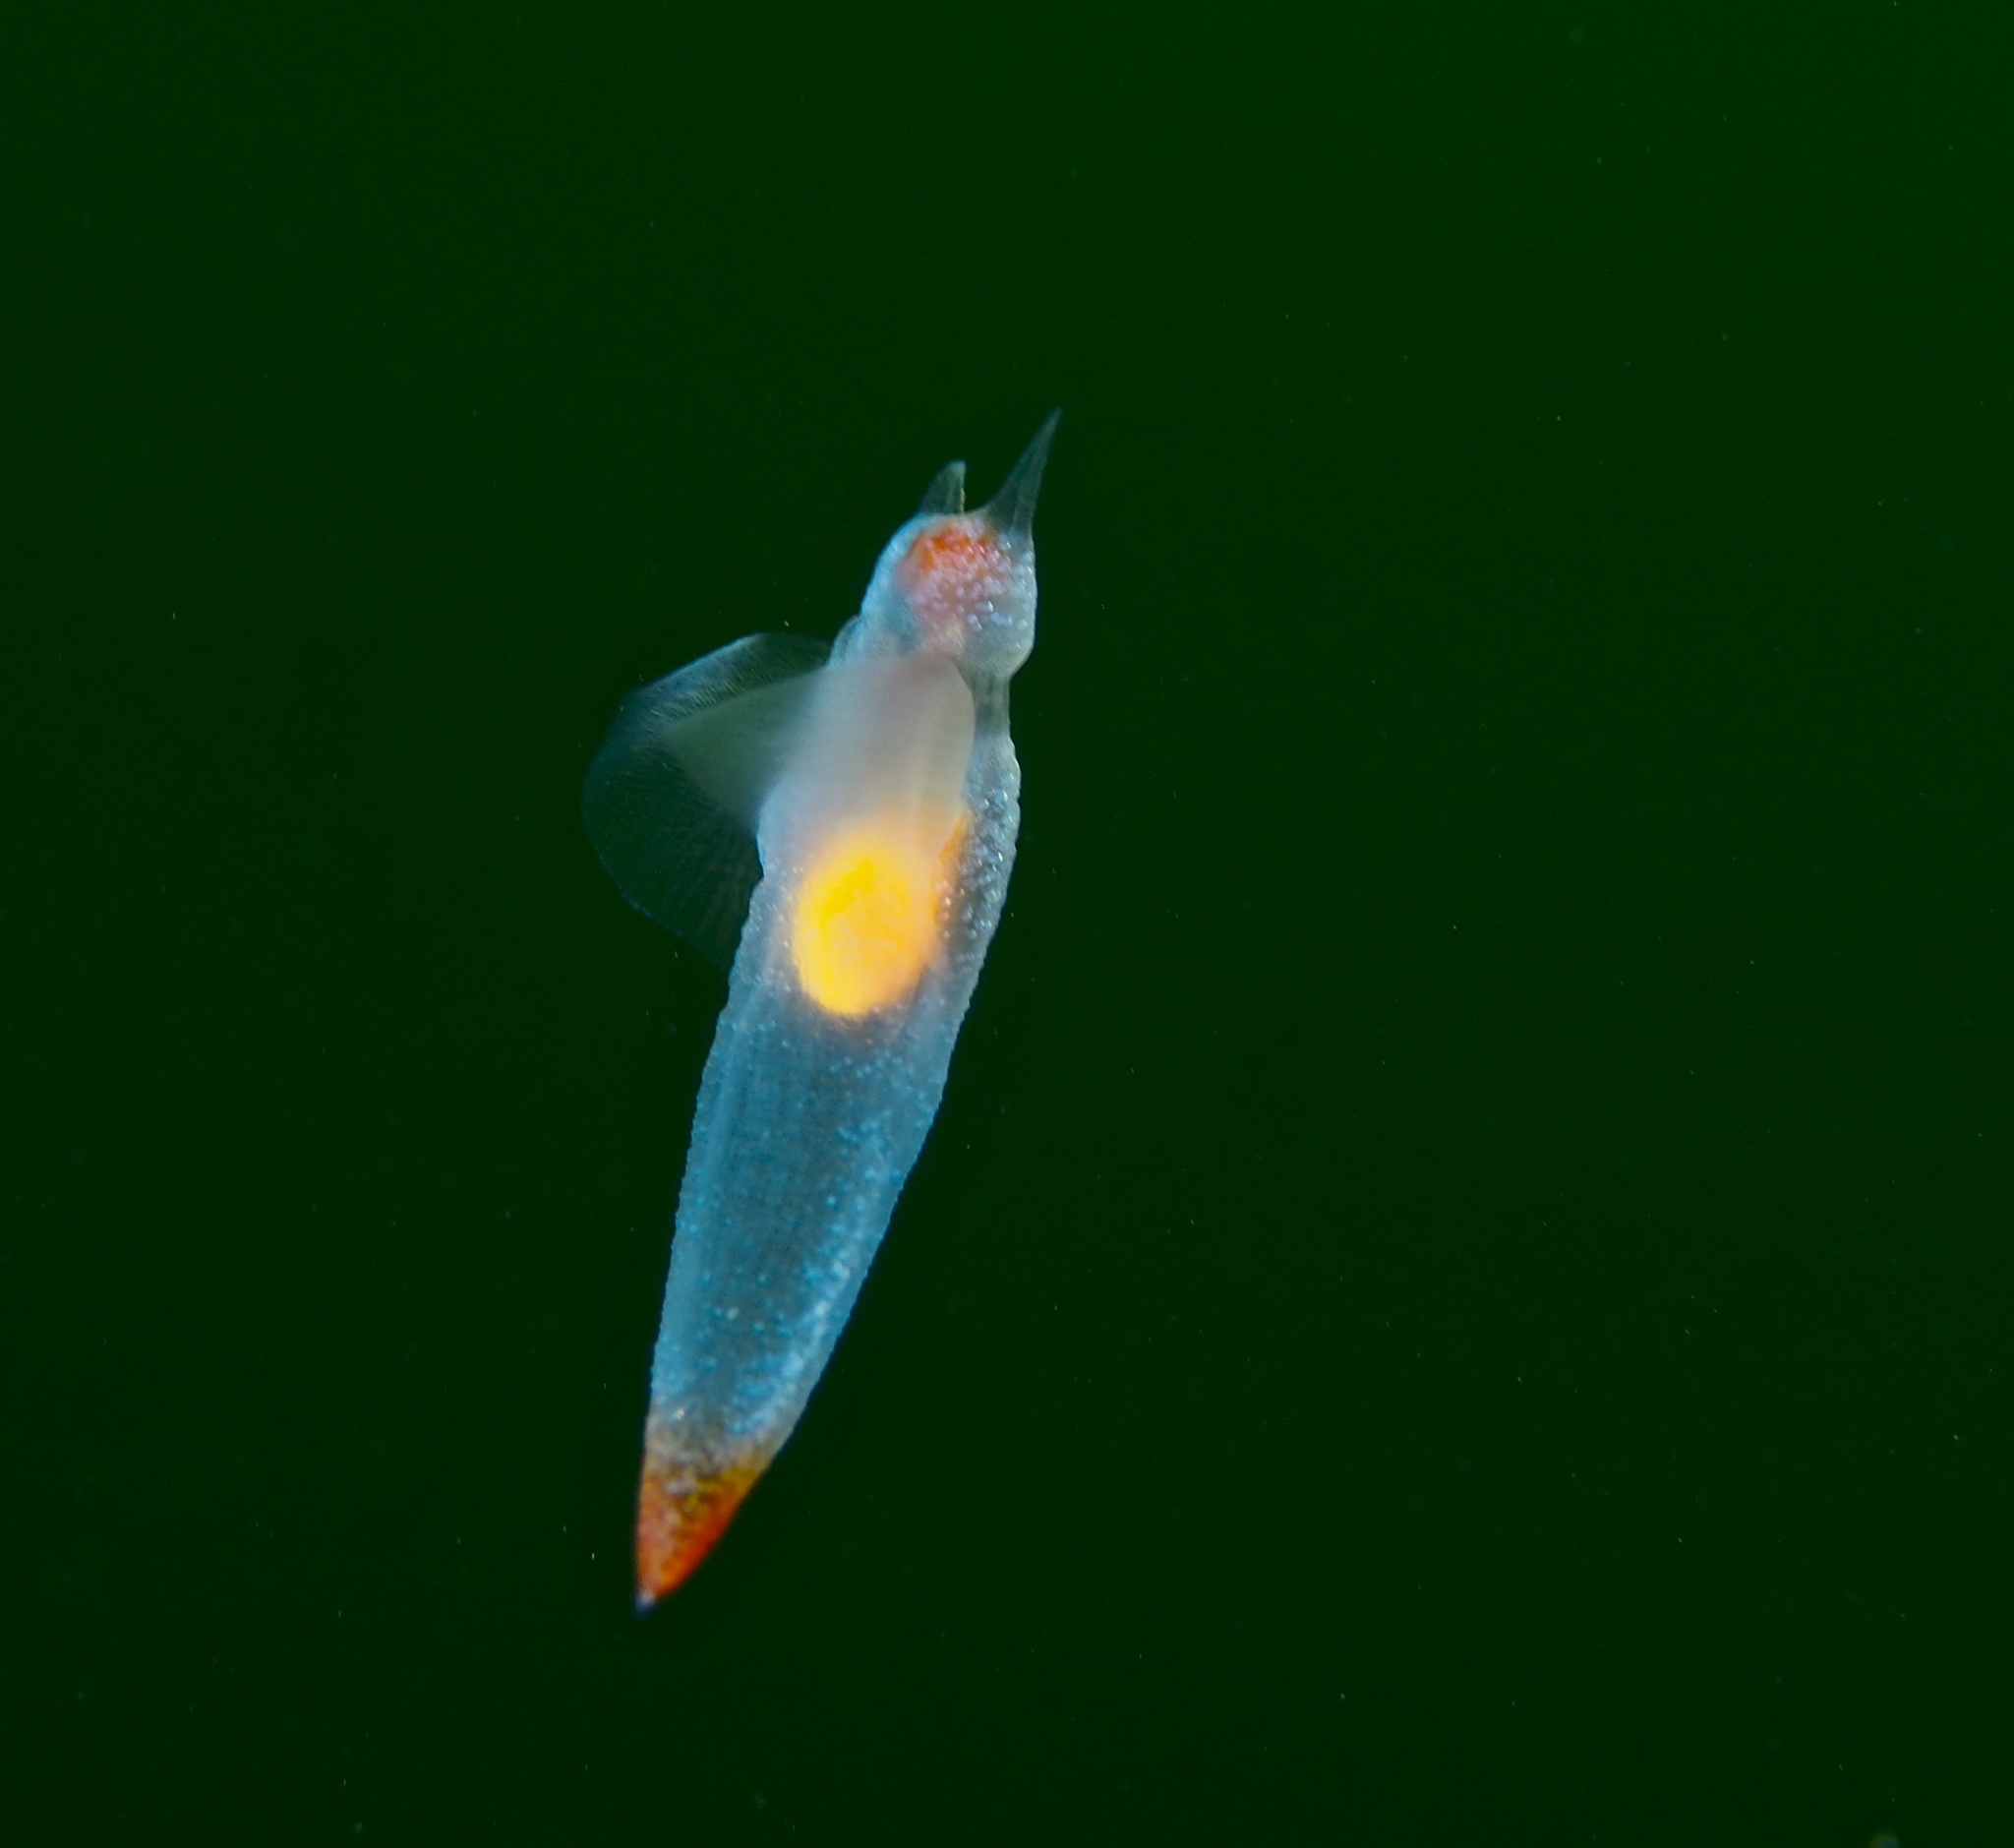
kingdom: Animalia
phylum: Mollusca
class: Gastropoda
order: Pteropoda
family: Clionidae
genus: Clione
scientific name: Clione limacina
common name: Common clione
